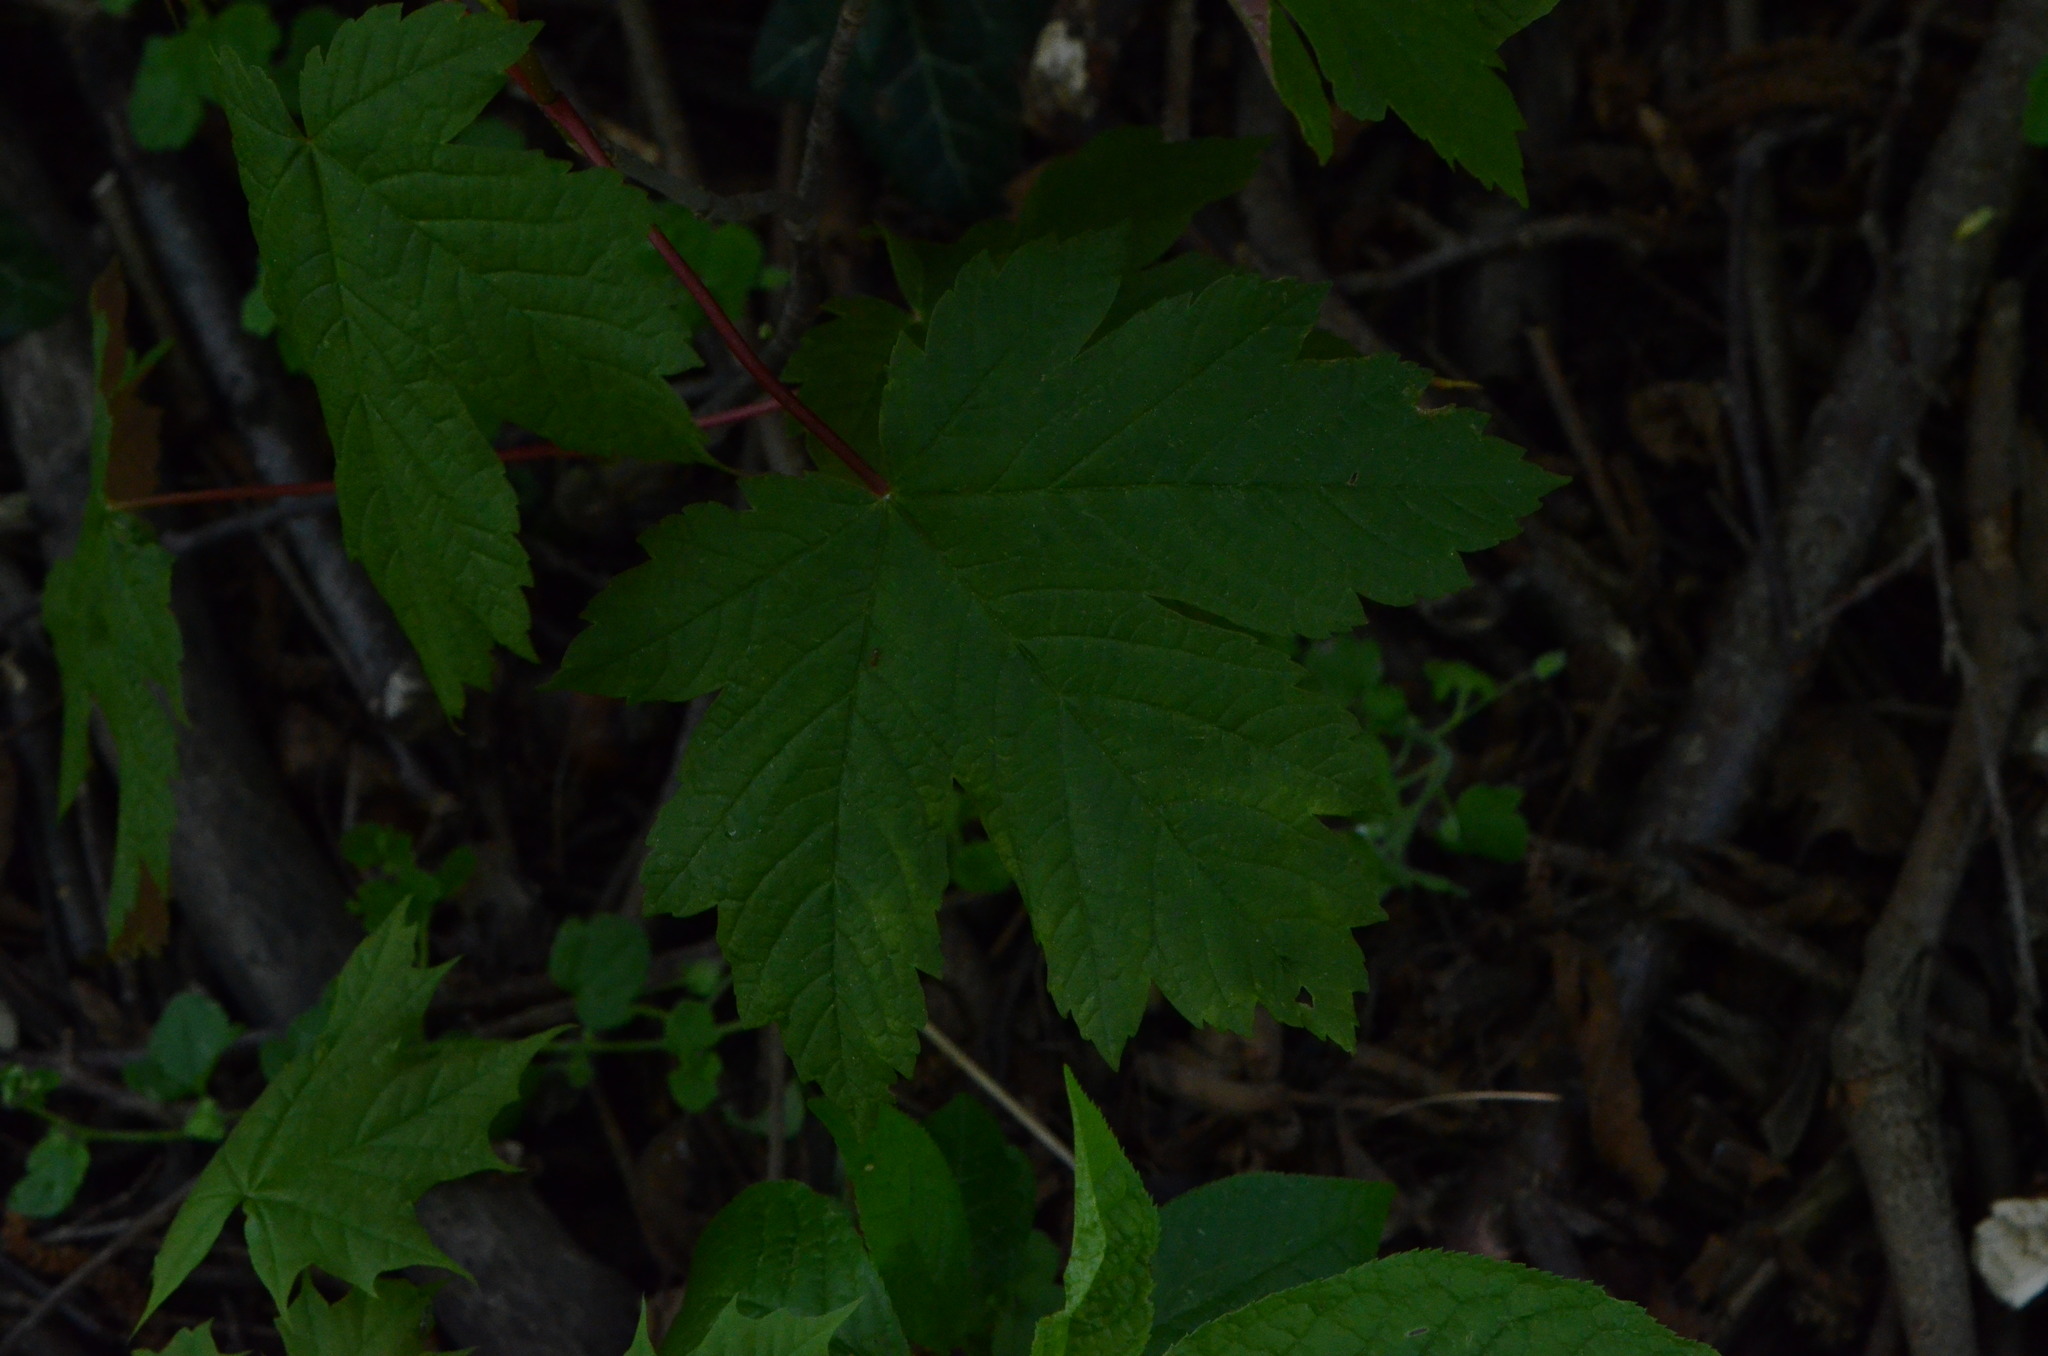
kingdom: Plantae
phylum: Tracheophyta
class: Magnoliopsida
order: Sapindales
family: Sapindaceae
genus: Acer
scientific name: Acer pseudoplatanus
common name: Sycamore
